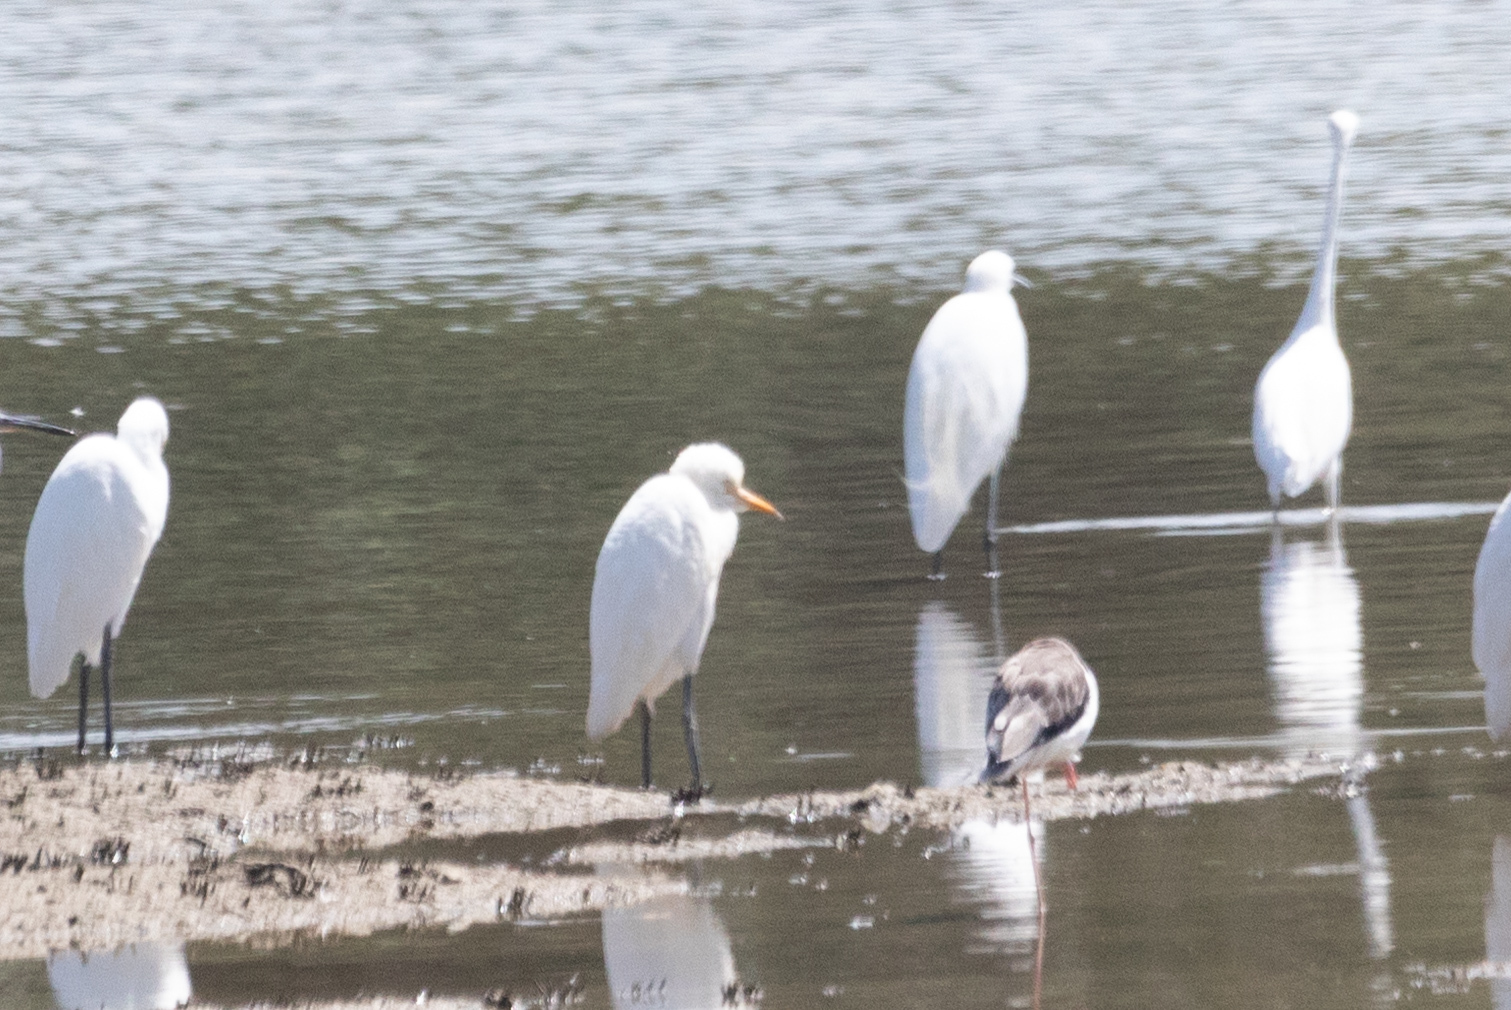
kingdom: Animalia
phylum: Chordata
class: Aves
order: Pelecaniformes
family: Ardeidae
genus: Bubulcus
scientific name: Bubulcus coromandus
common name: Eastern cattle egret
